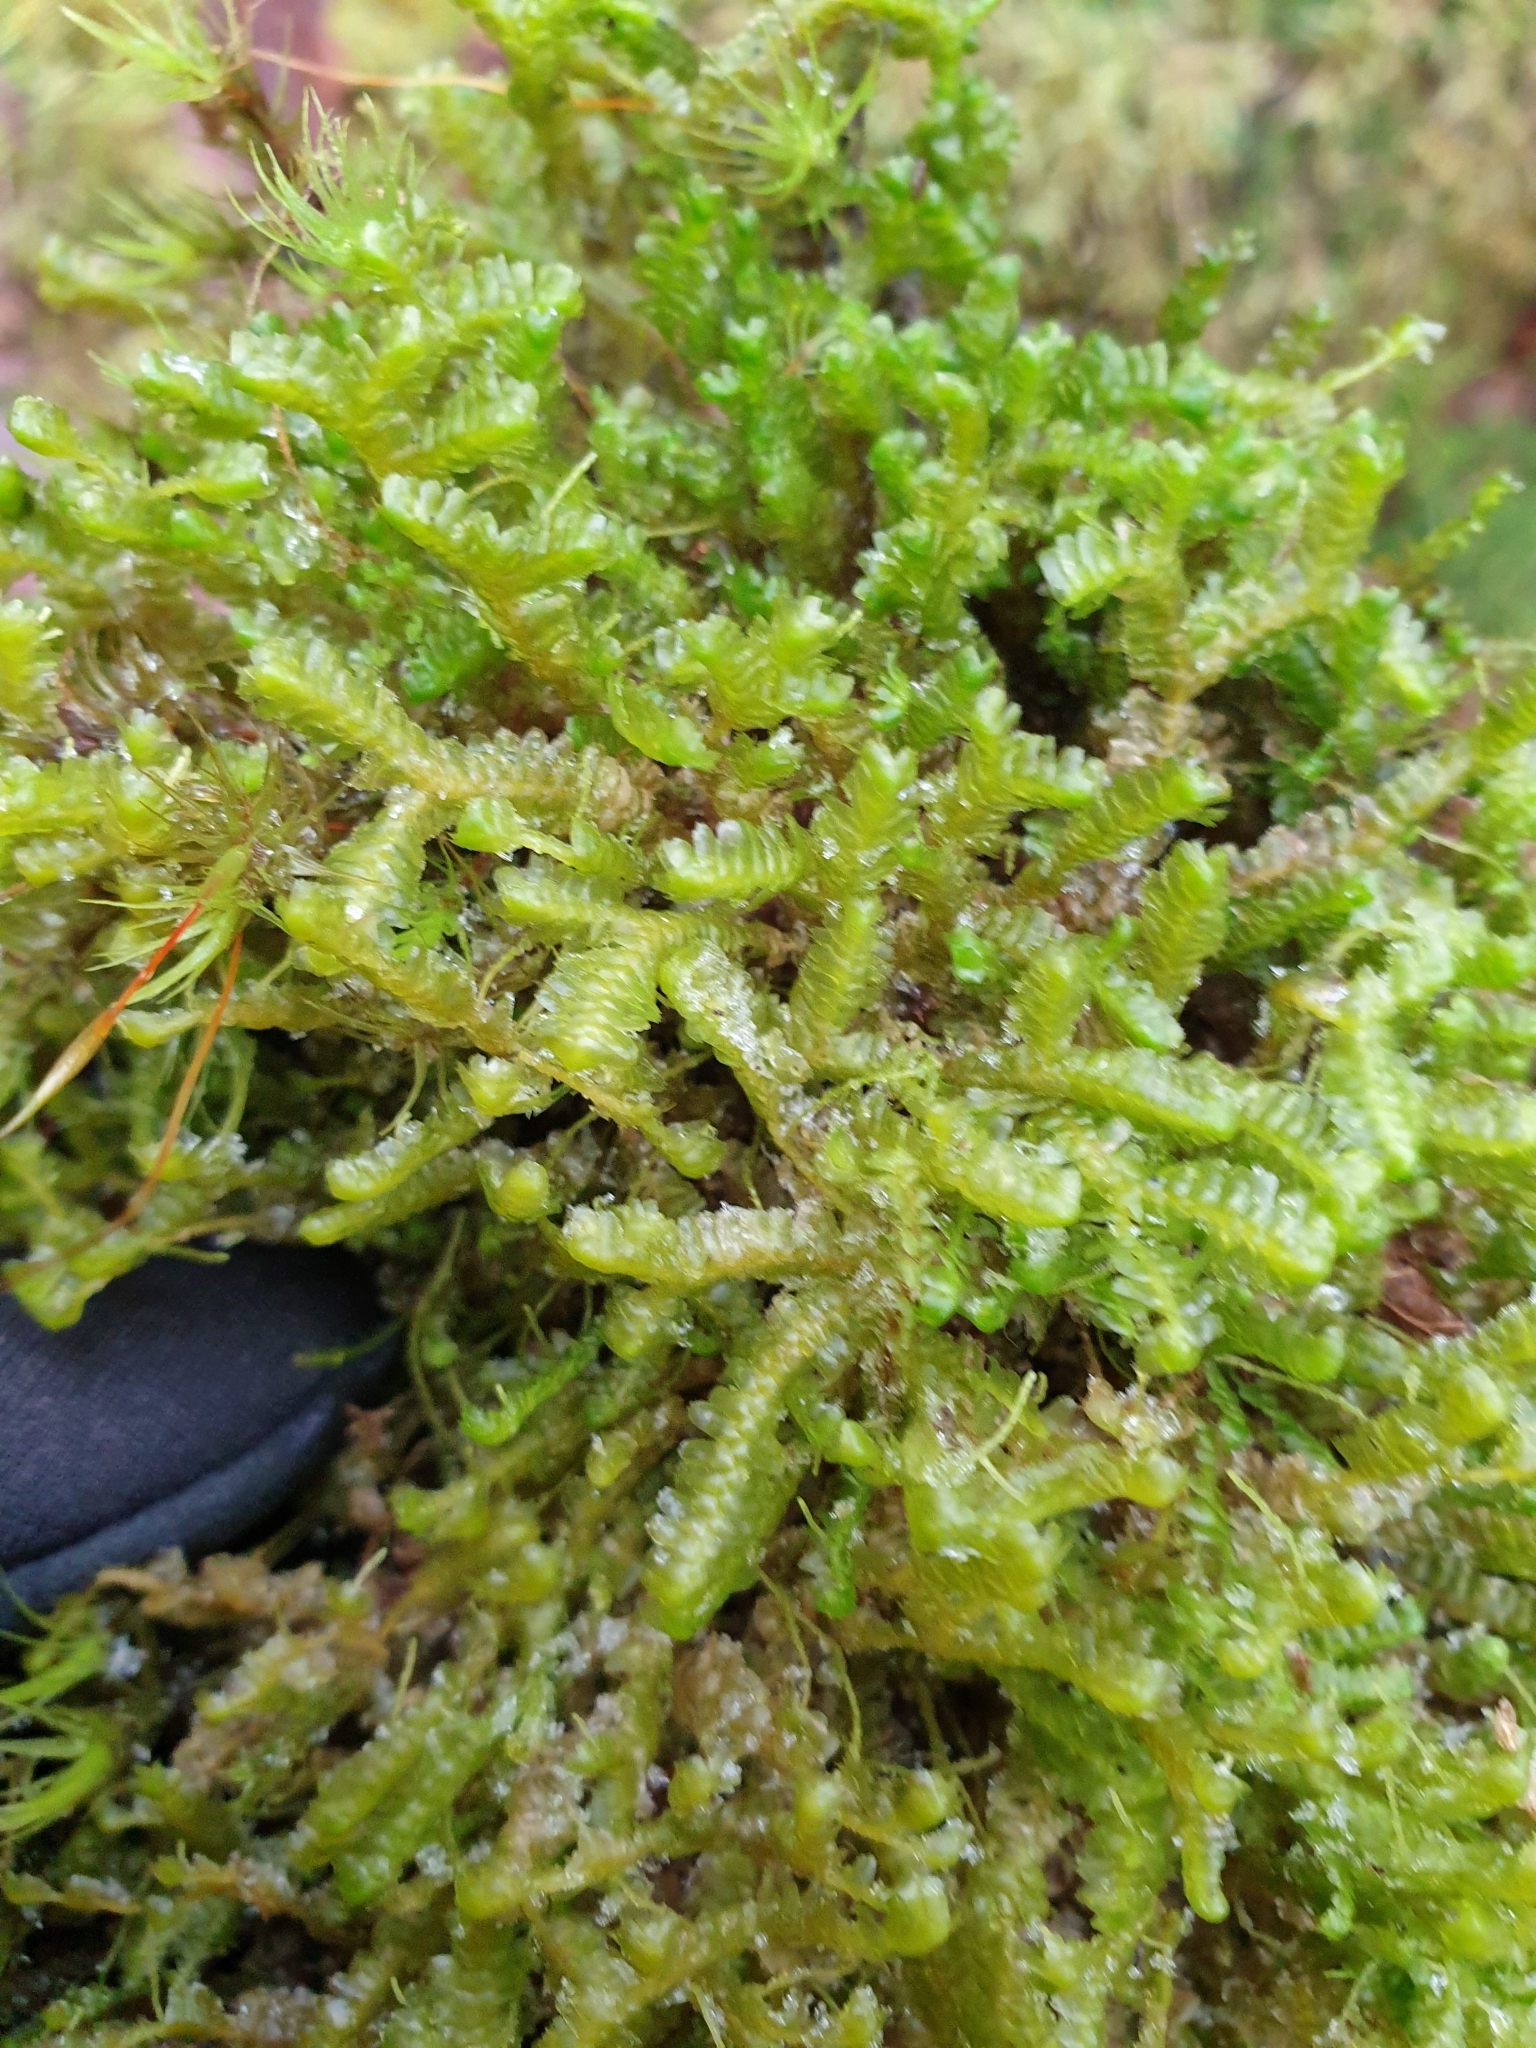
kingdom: Plantae
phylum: Marchantiophyta
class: Jungermanniopsida
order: Jungermanniales
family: Lepidoziaceae
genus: Bazzania
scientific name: Bazzania trilobata
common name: Three-lobed whipwort
